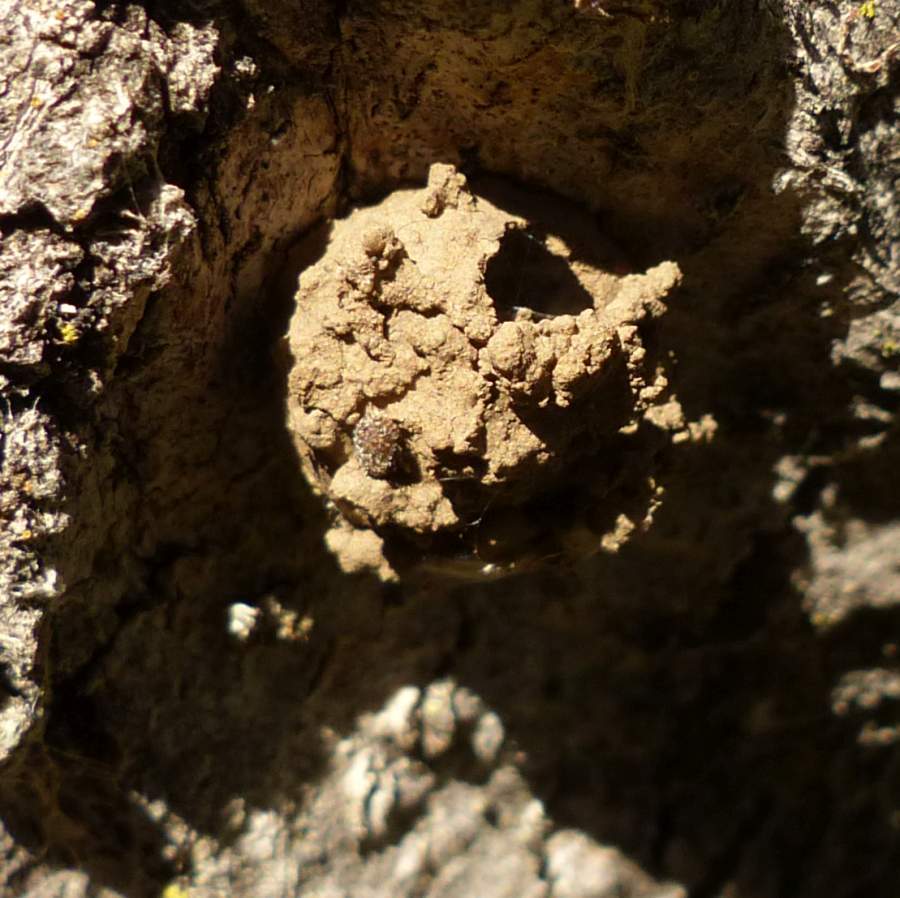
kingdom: Animalia
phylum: Arthropoda
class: Insecta
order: Hymenoptera
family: Vespidae
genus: Eumenes
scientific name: Eumenes
